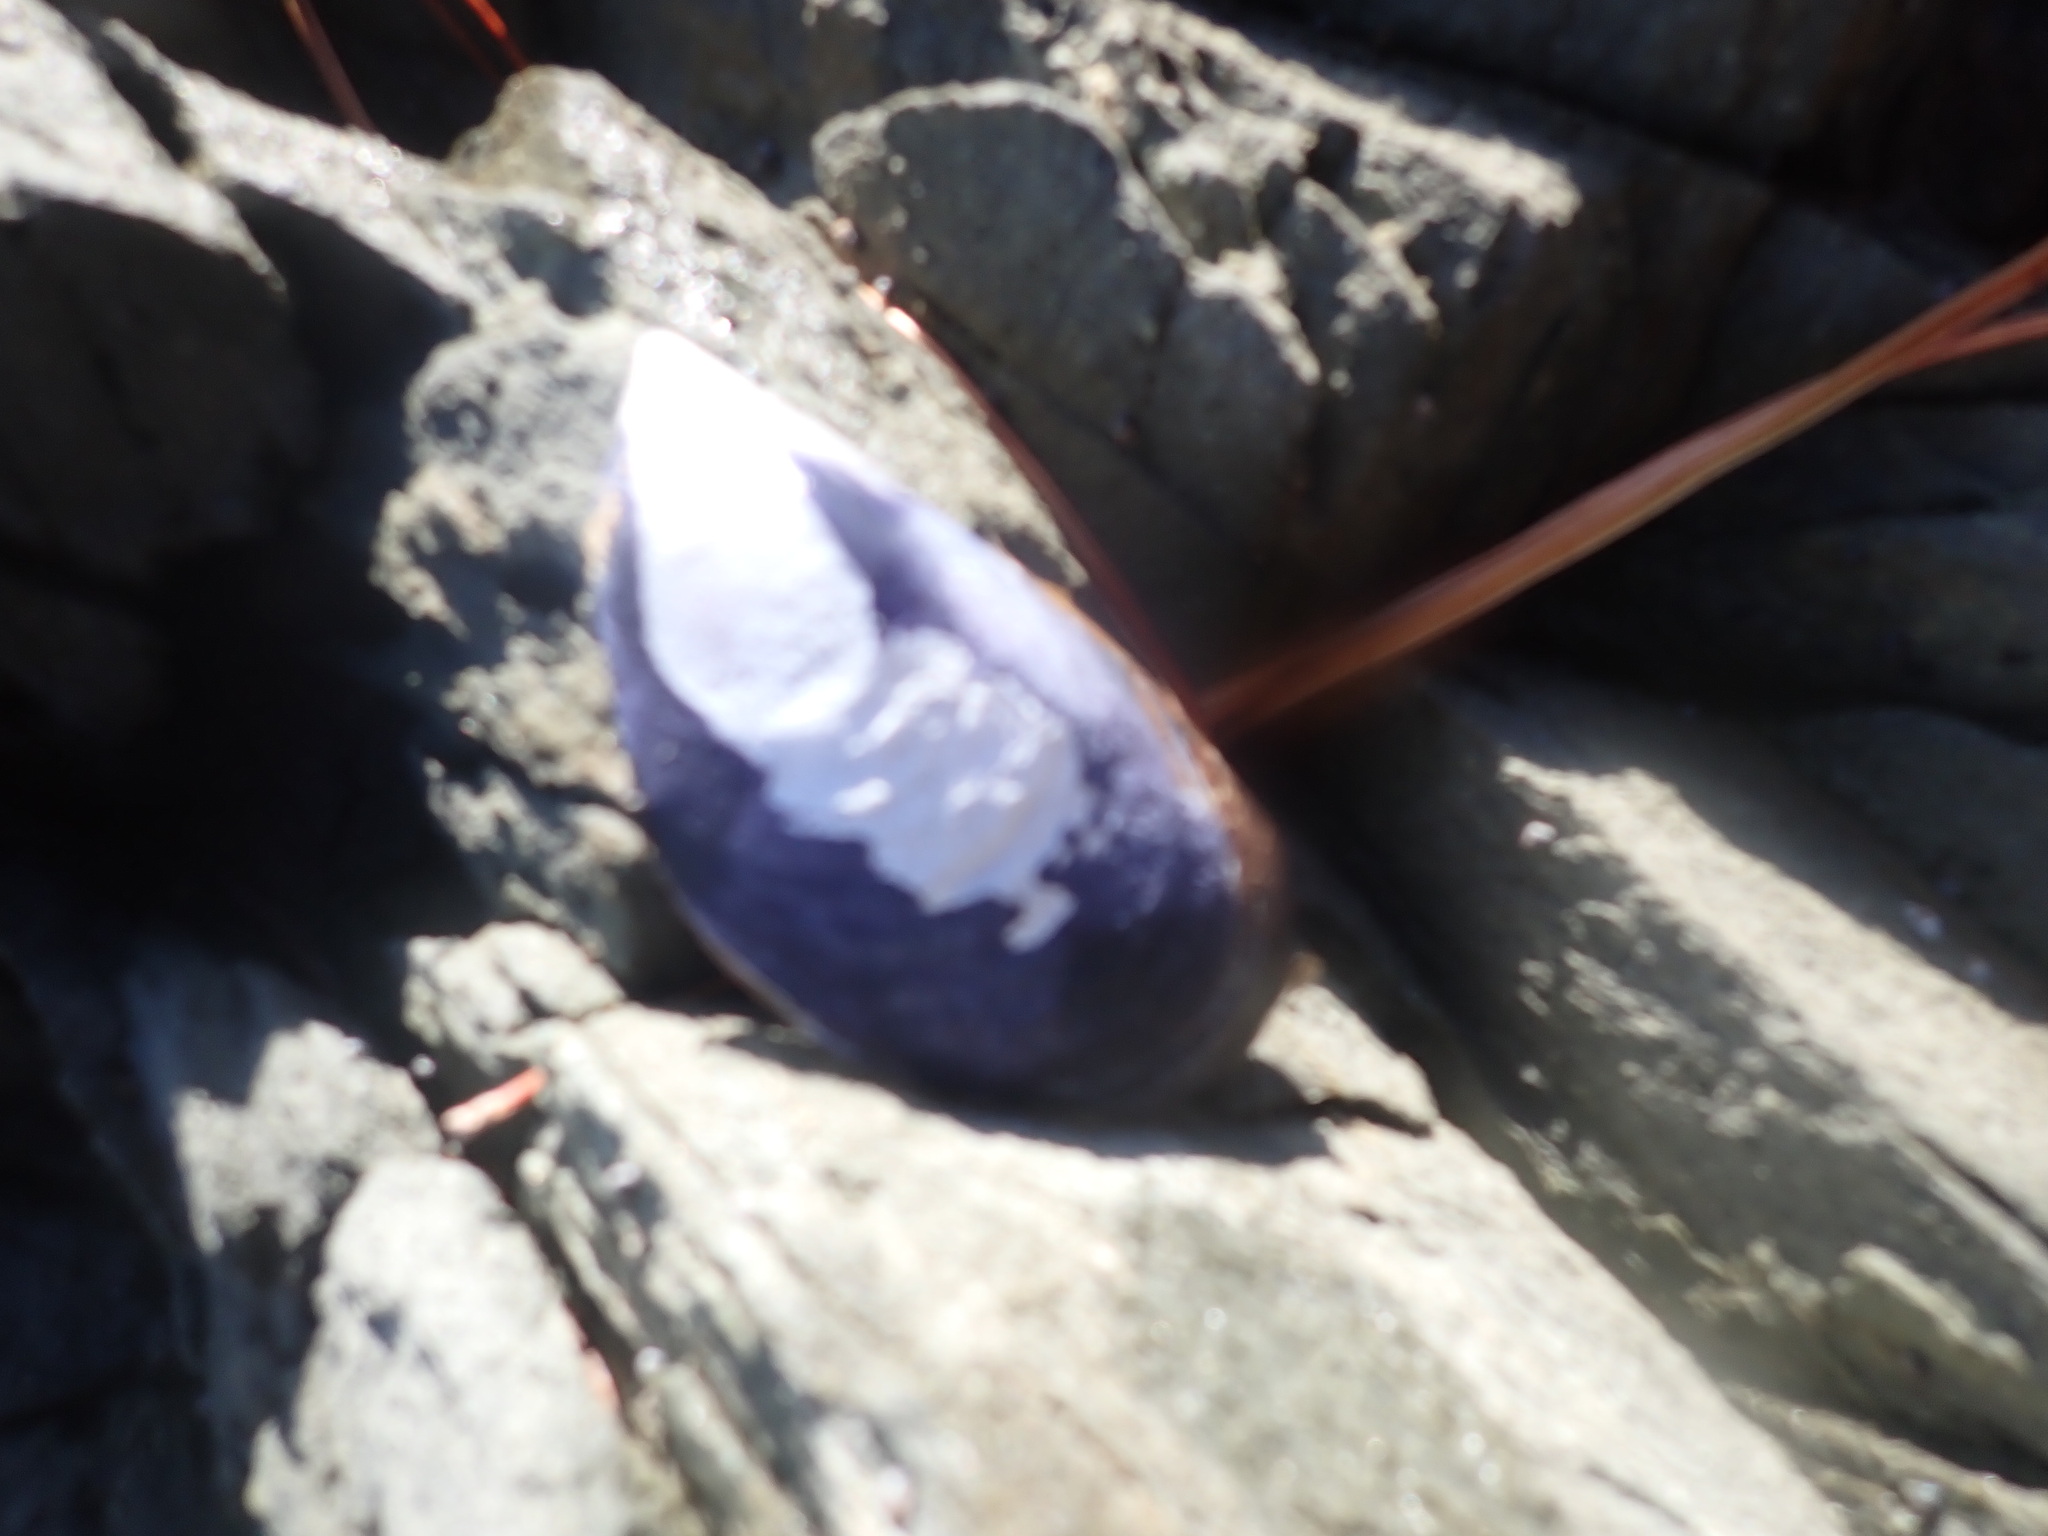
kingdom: Animalia
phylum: Mollusca
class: Bivalvia
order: Mytilida
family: Mytilidae
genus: Mytilus
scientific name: Mytilus planulatus
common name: Australian mussel
